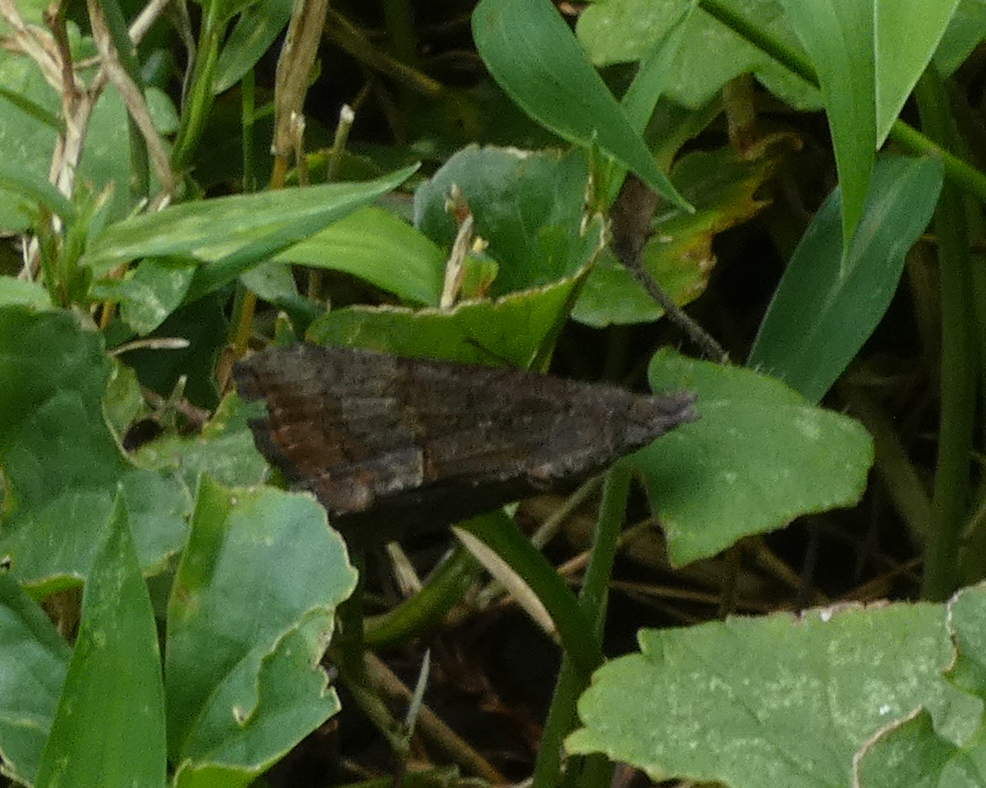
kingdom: Animalia
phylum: Arthropoda
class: Insecta
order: Lepidoptera
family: Erebidae
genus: Hypena
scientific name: Hypena scabra
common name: Green cloverworm
